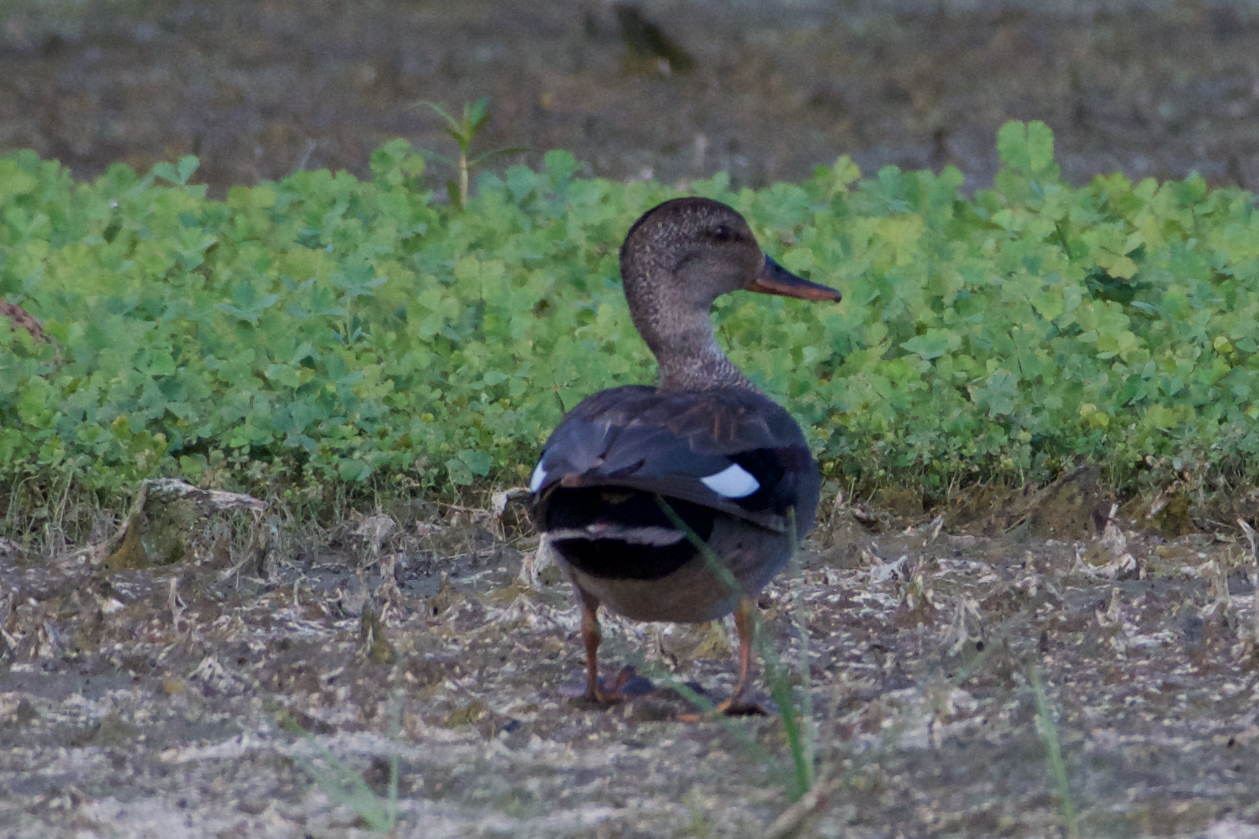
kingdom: Animalia
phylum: Chordata
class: Aves
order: Anseriformes
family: Anatidae
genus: Mareca
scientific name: Mareca strepera
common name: Gadwall
